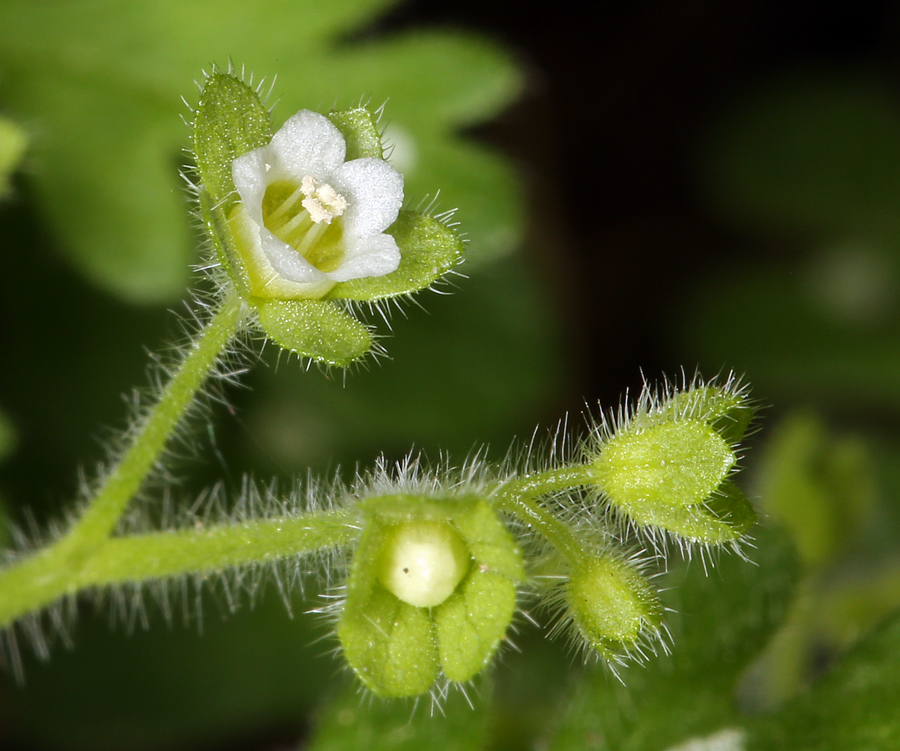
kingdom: Plantae
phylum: Tracheophyta
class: Magnoliopsida
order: Boraginales
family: Hydrophyllaceae
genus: Eucrypta
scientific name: Eucrypta chrysanthemifolia
